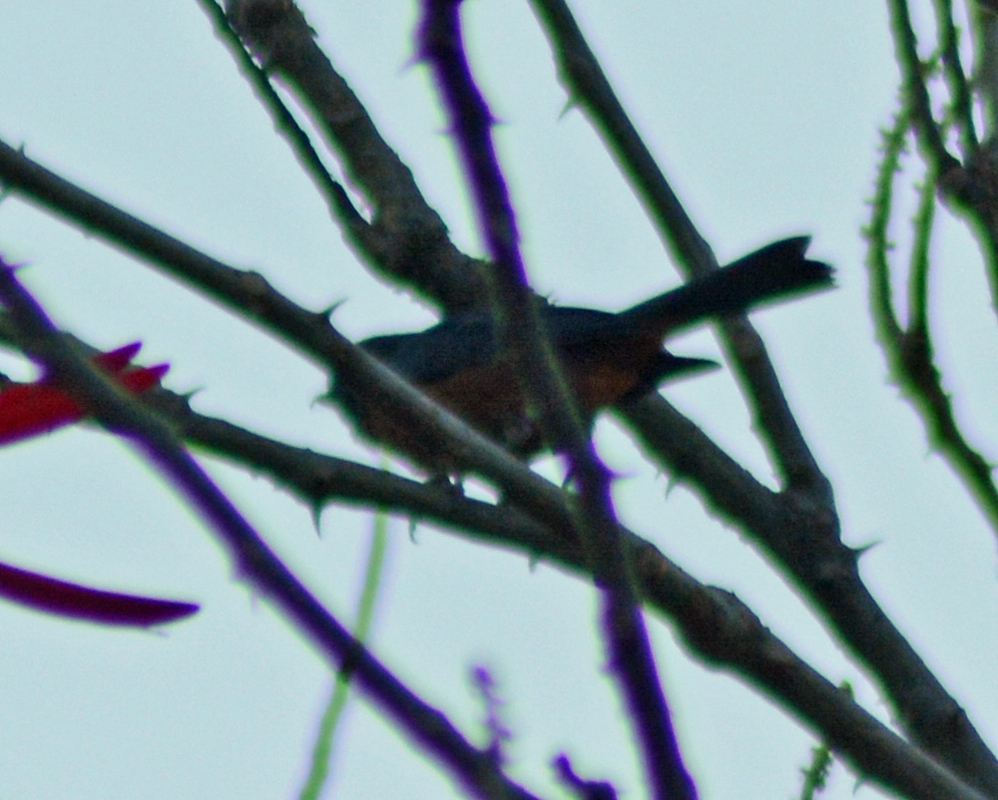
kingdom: Animalia
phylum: Chordata
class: Aves
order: Passeriformes
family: Thraupidae
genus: Diglossa
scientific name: Diglossa baritula
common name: Cinnamon-bellied flowerpiercer
